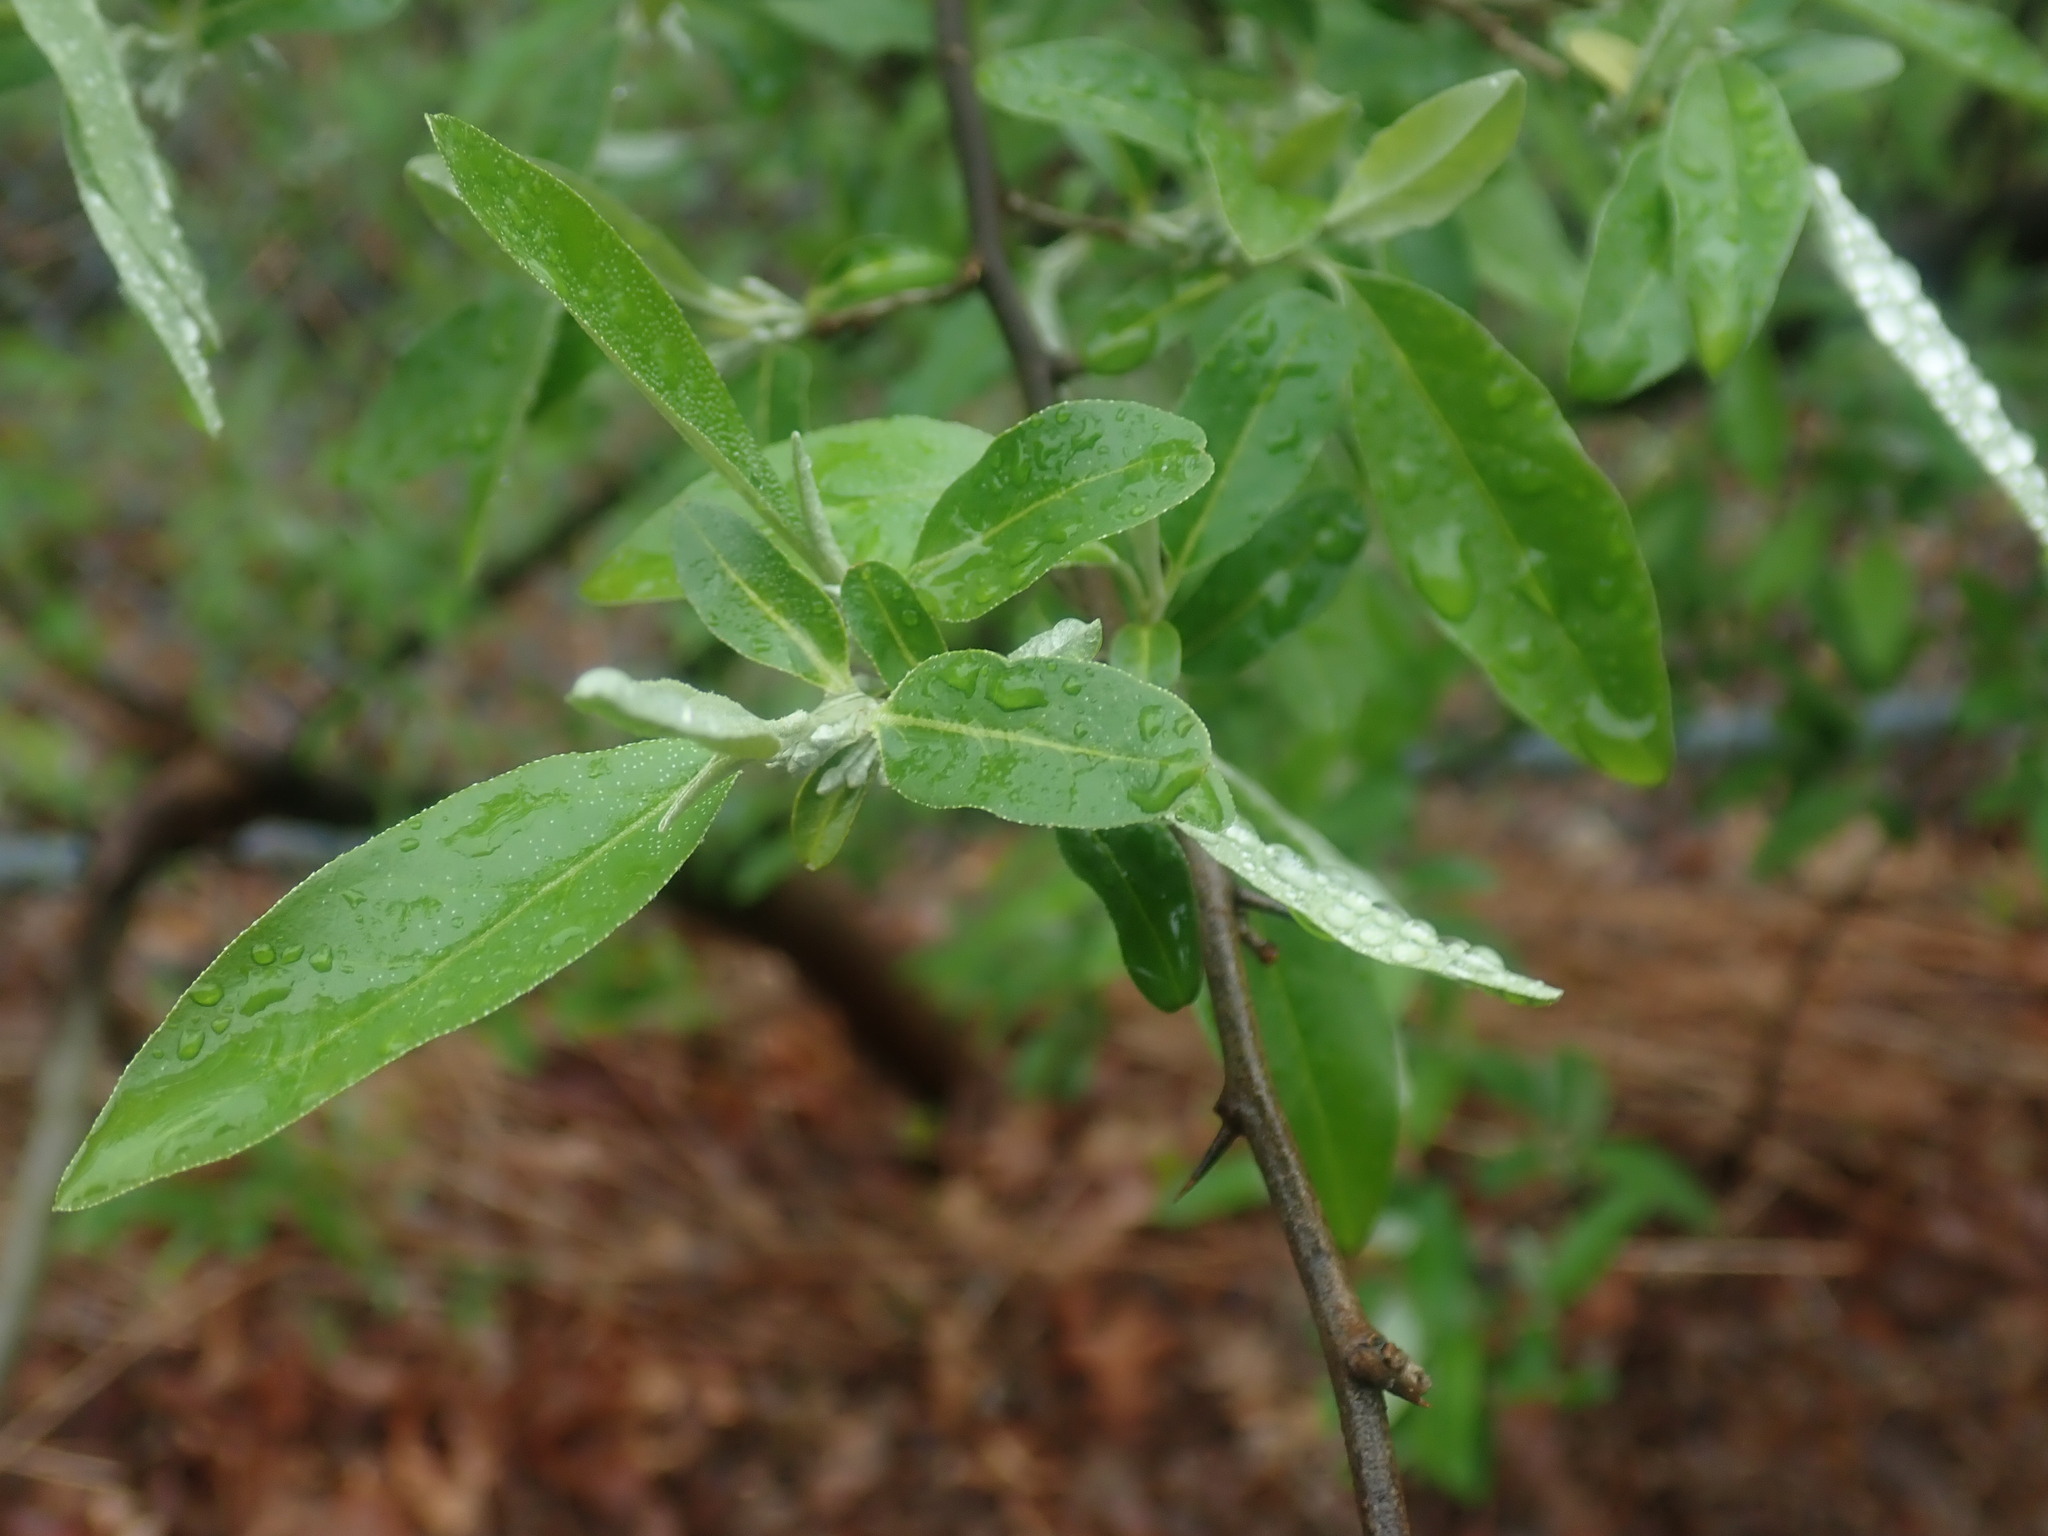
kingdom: Plantae
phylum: Tracheophyta
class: Magnoliopsida
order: Rosales
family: Elaeagnaceae
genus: Elaeagnus
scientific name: Elaeagnus umbellata
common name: Autumn olive
